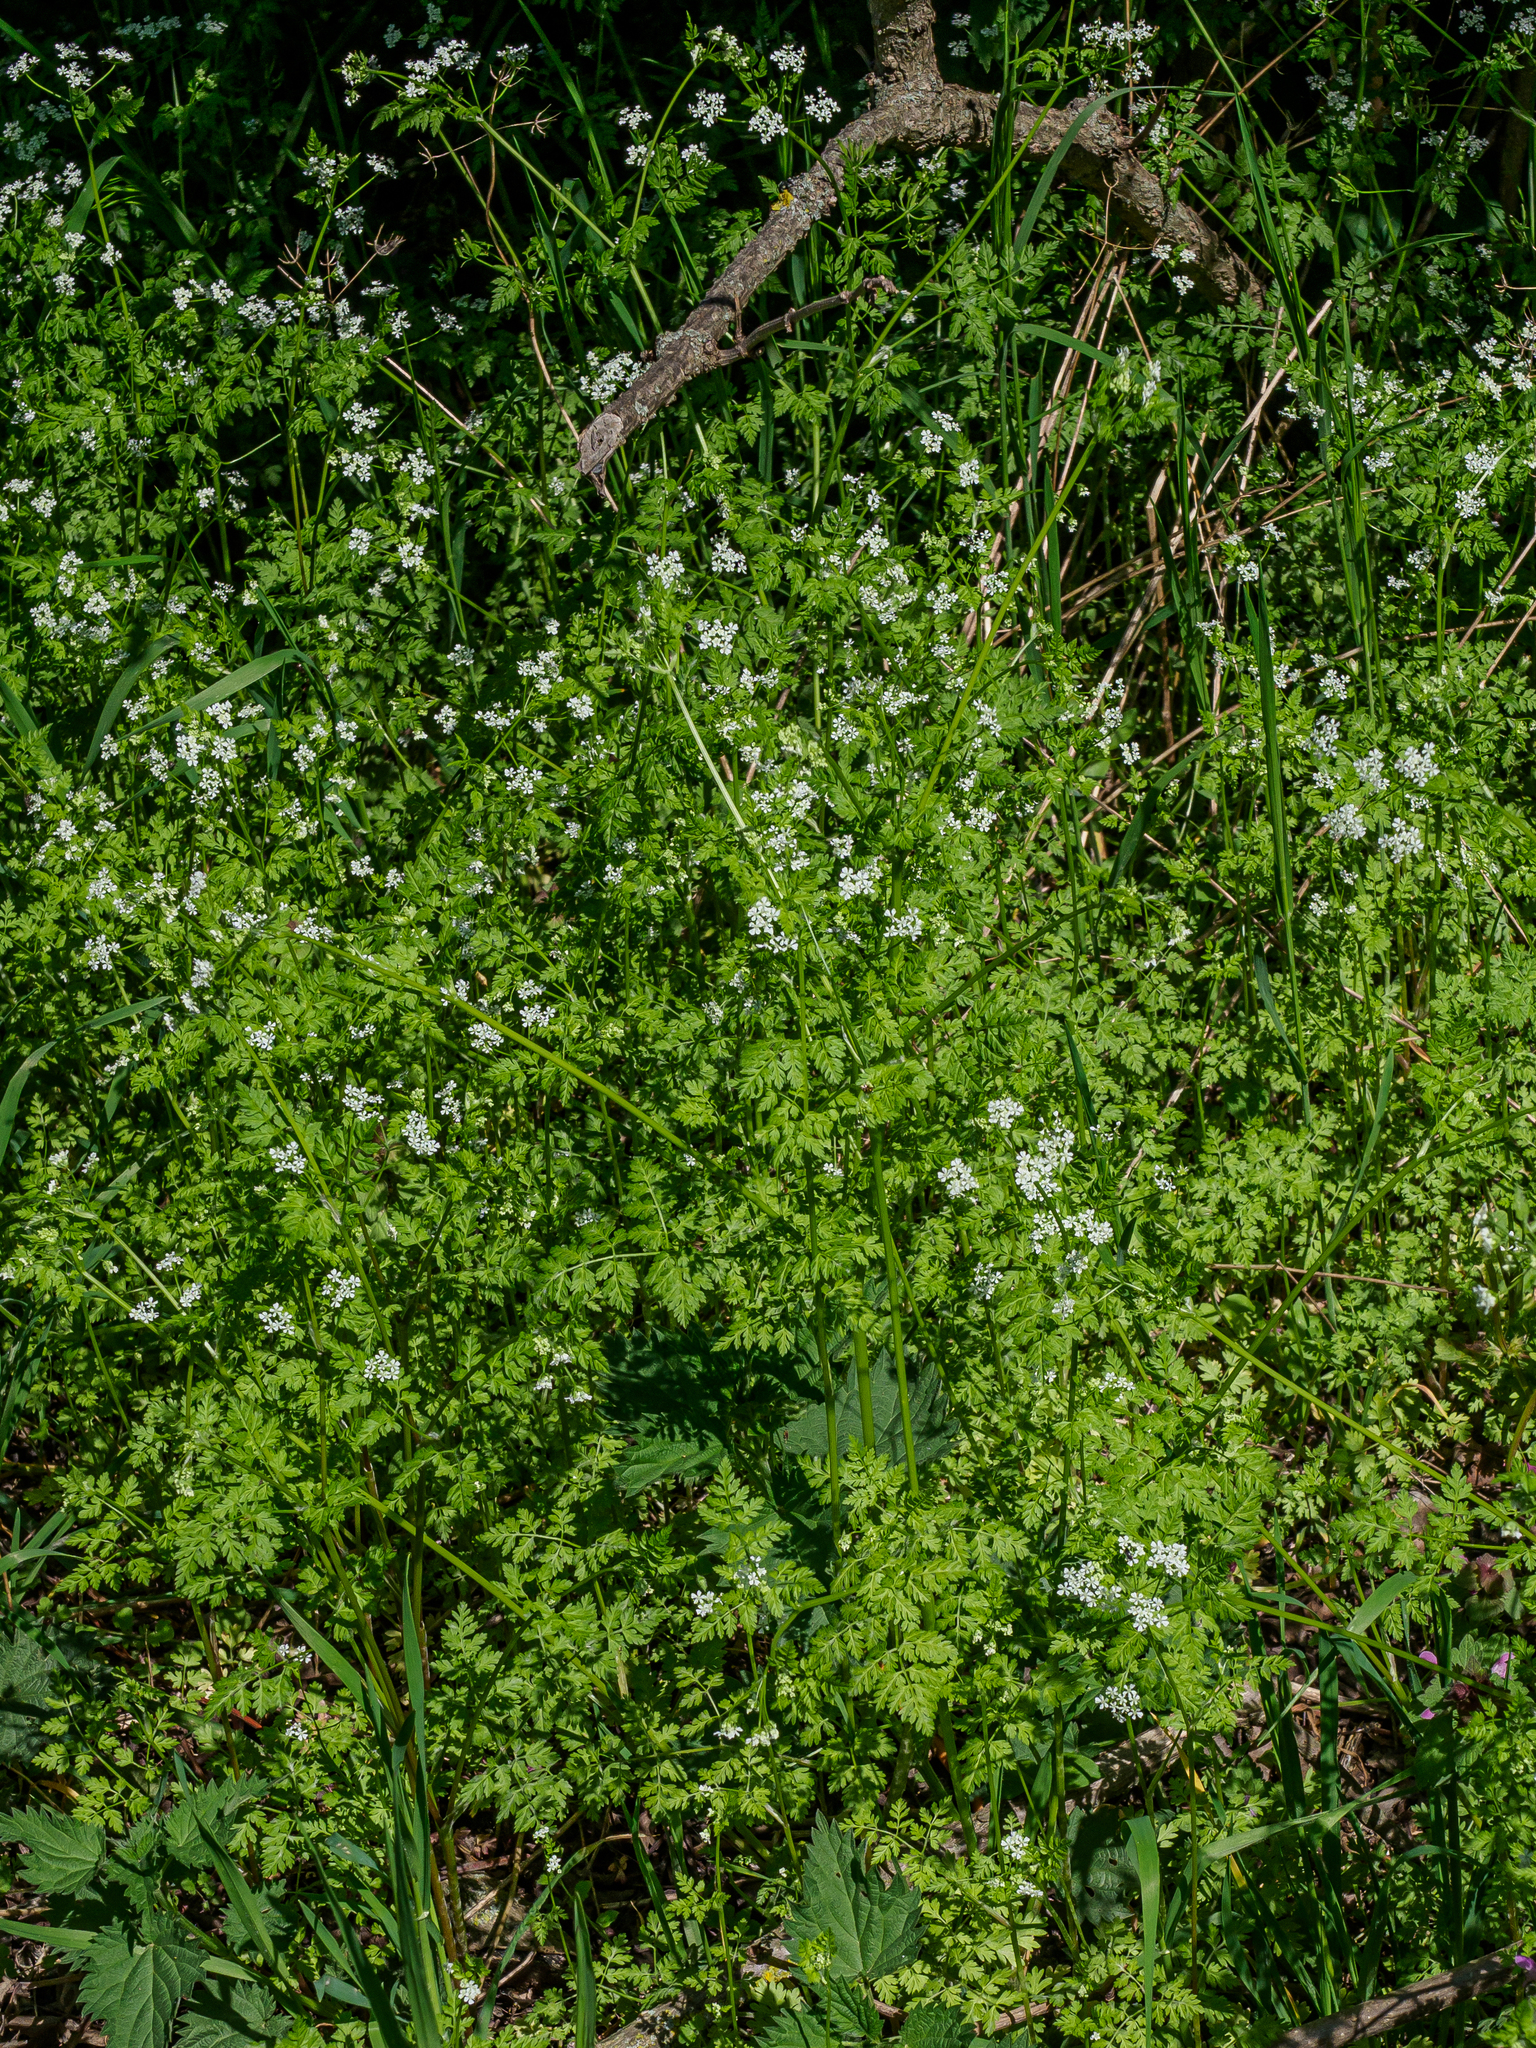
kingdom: Plantae
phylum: Tracheophyta
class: Magnoliopsida
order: Apiales
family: Apiaceae
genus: Anthriscus
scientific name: Anthriscus cerefolium
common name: Garden chervil
